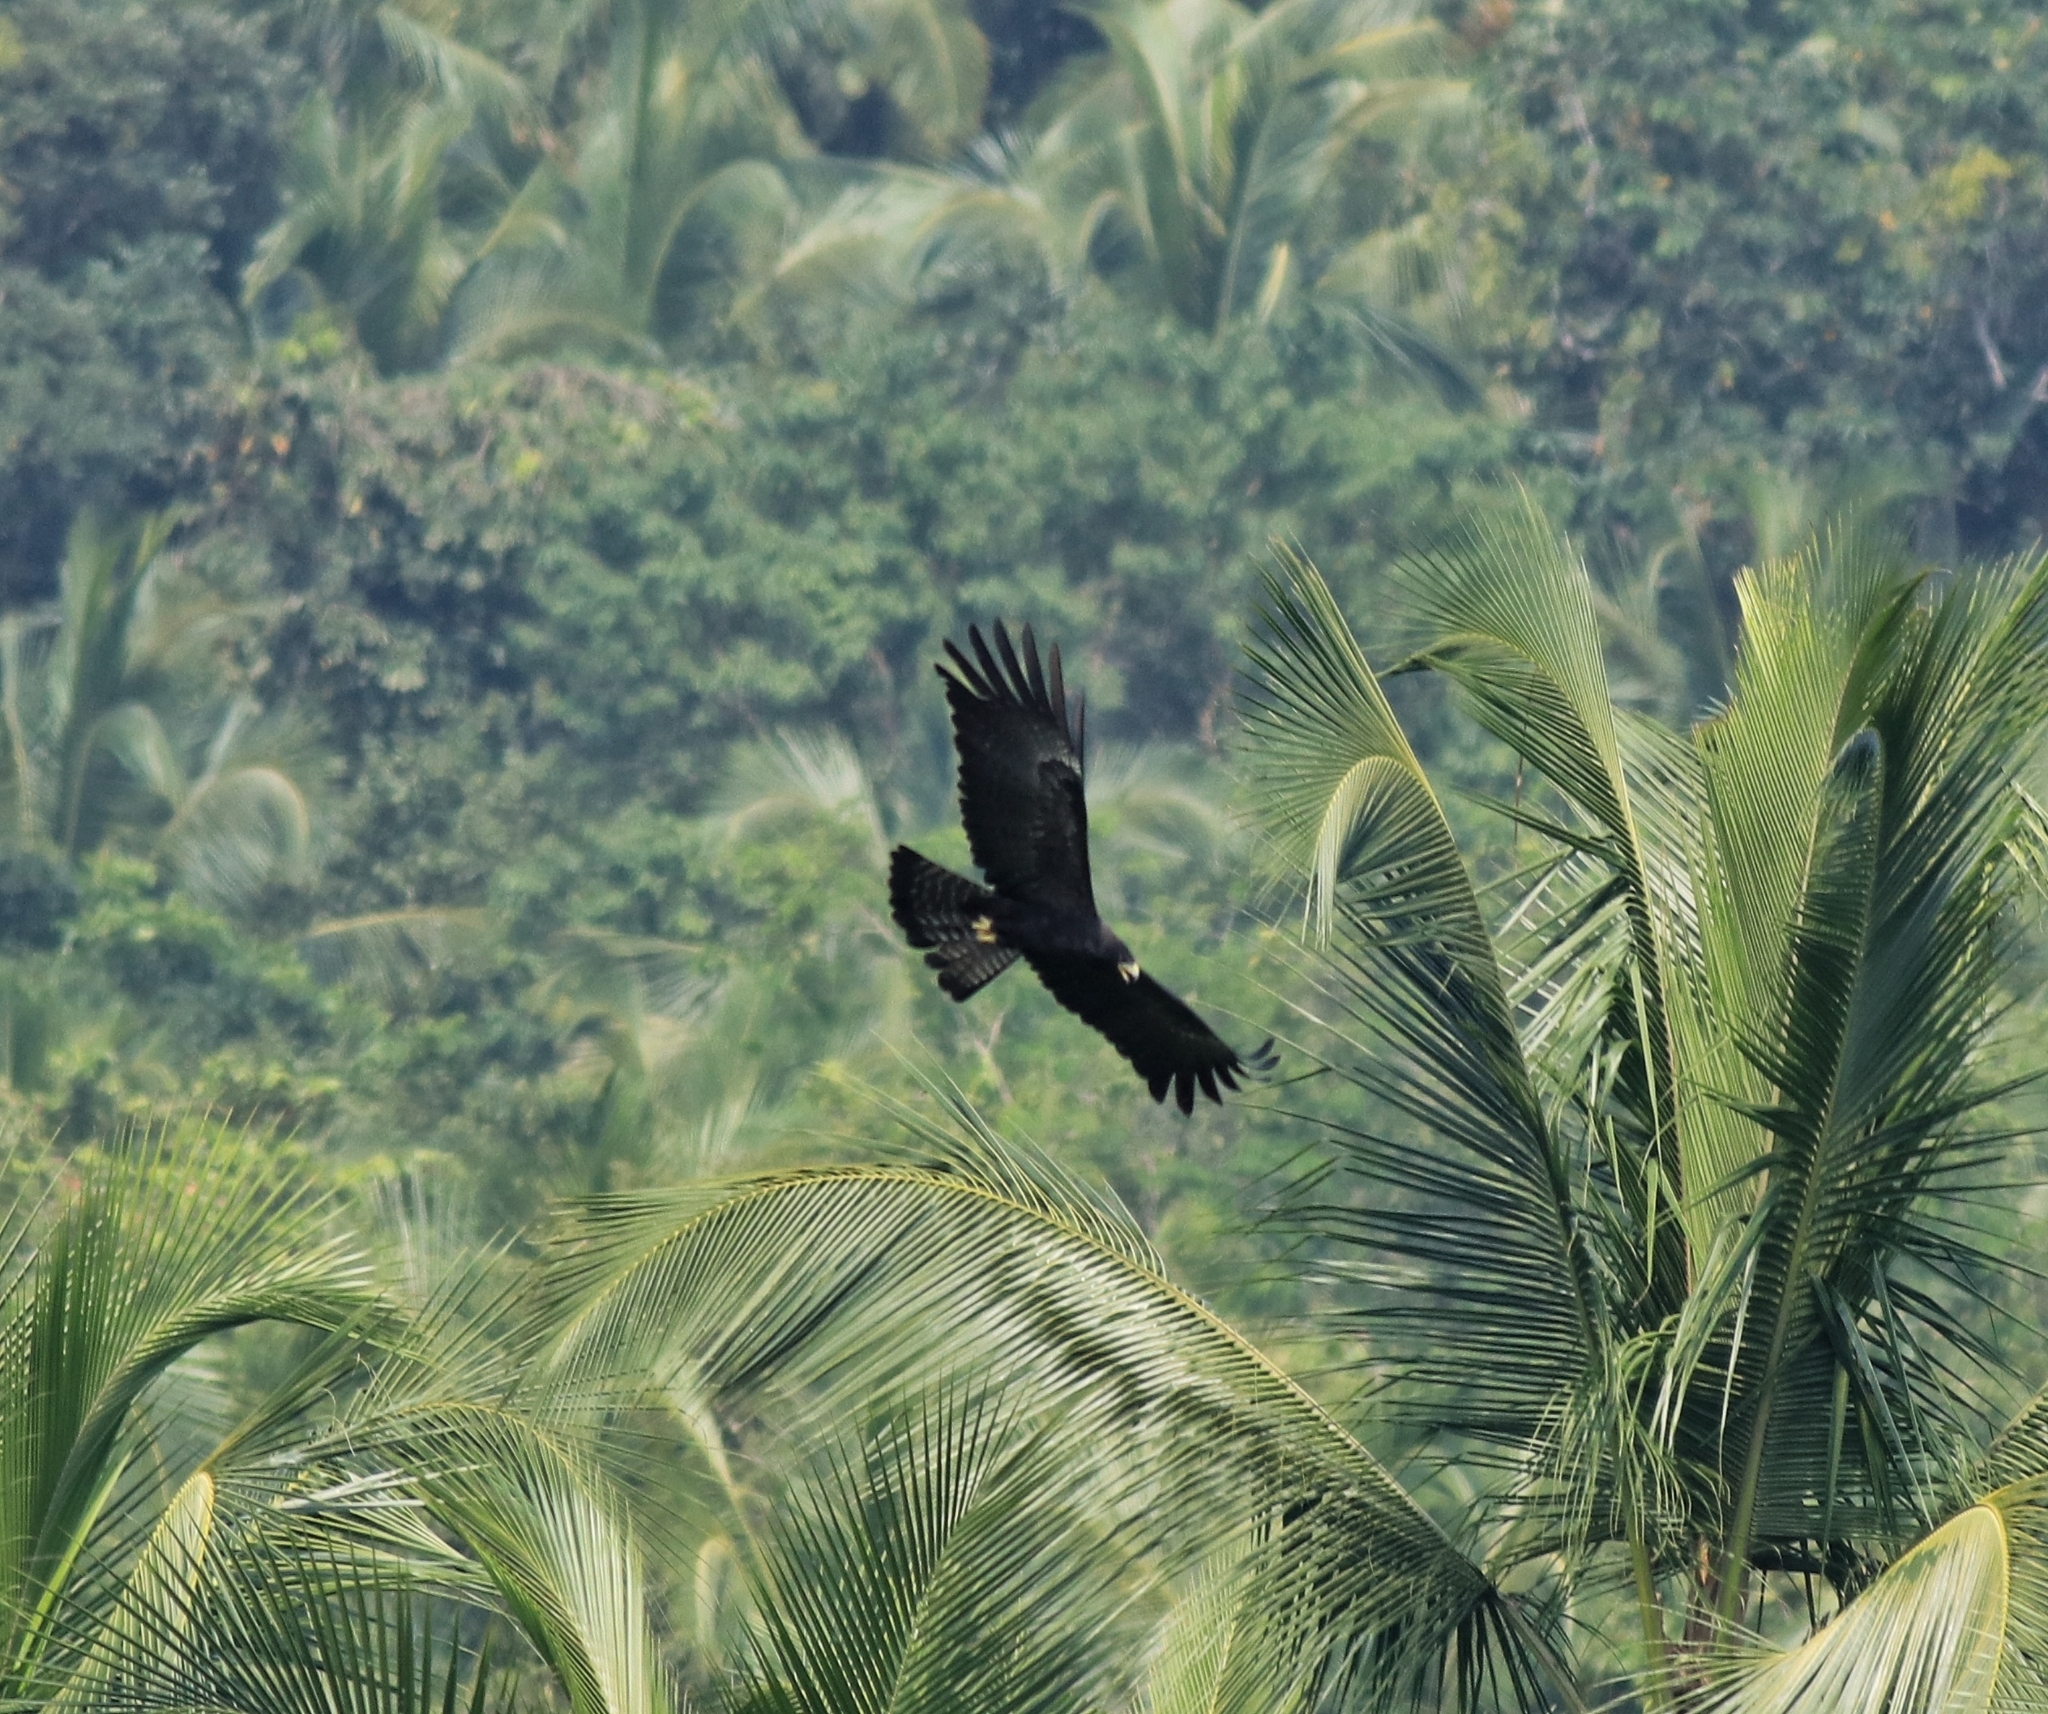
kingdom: Animalia
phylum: Chordata
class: Aves
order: Accipitriformes
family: Accipitridae
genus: Ictinaetus
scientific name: Ictinaetus malayensis
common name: Black eagle
